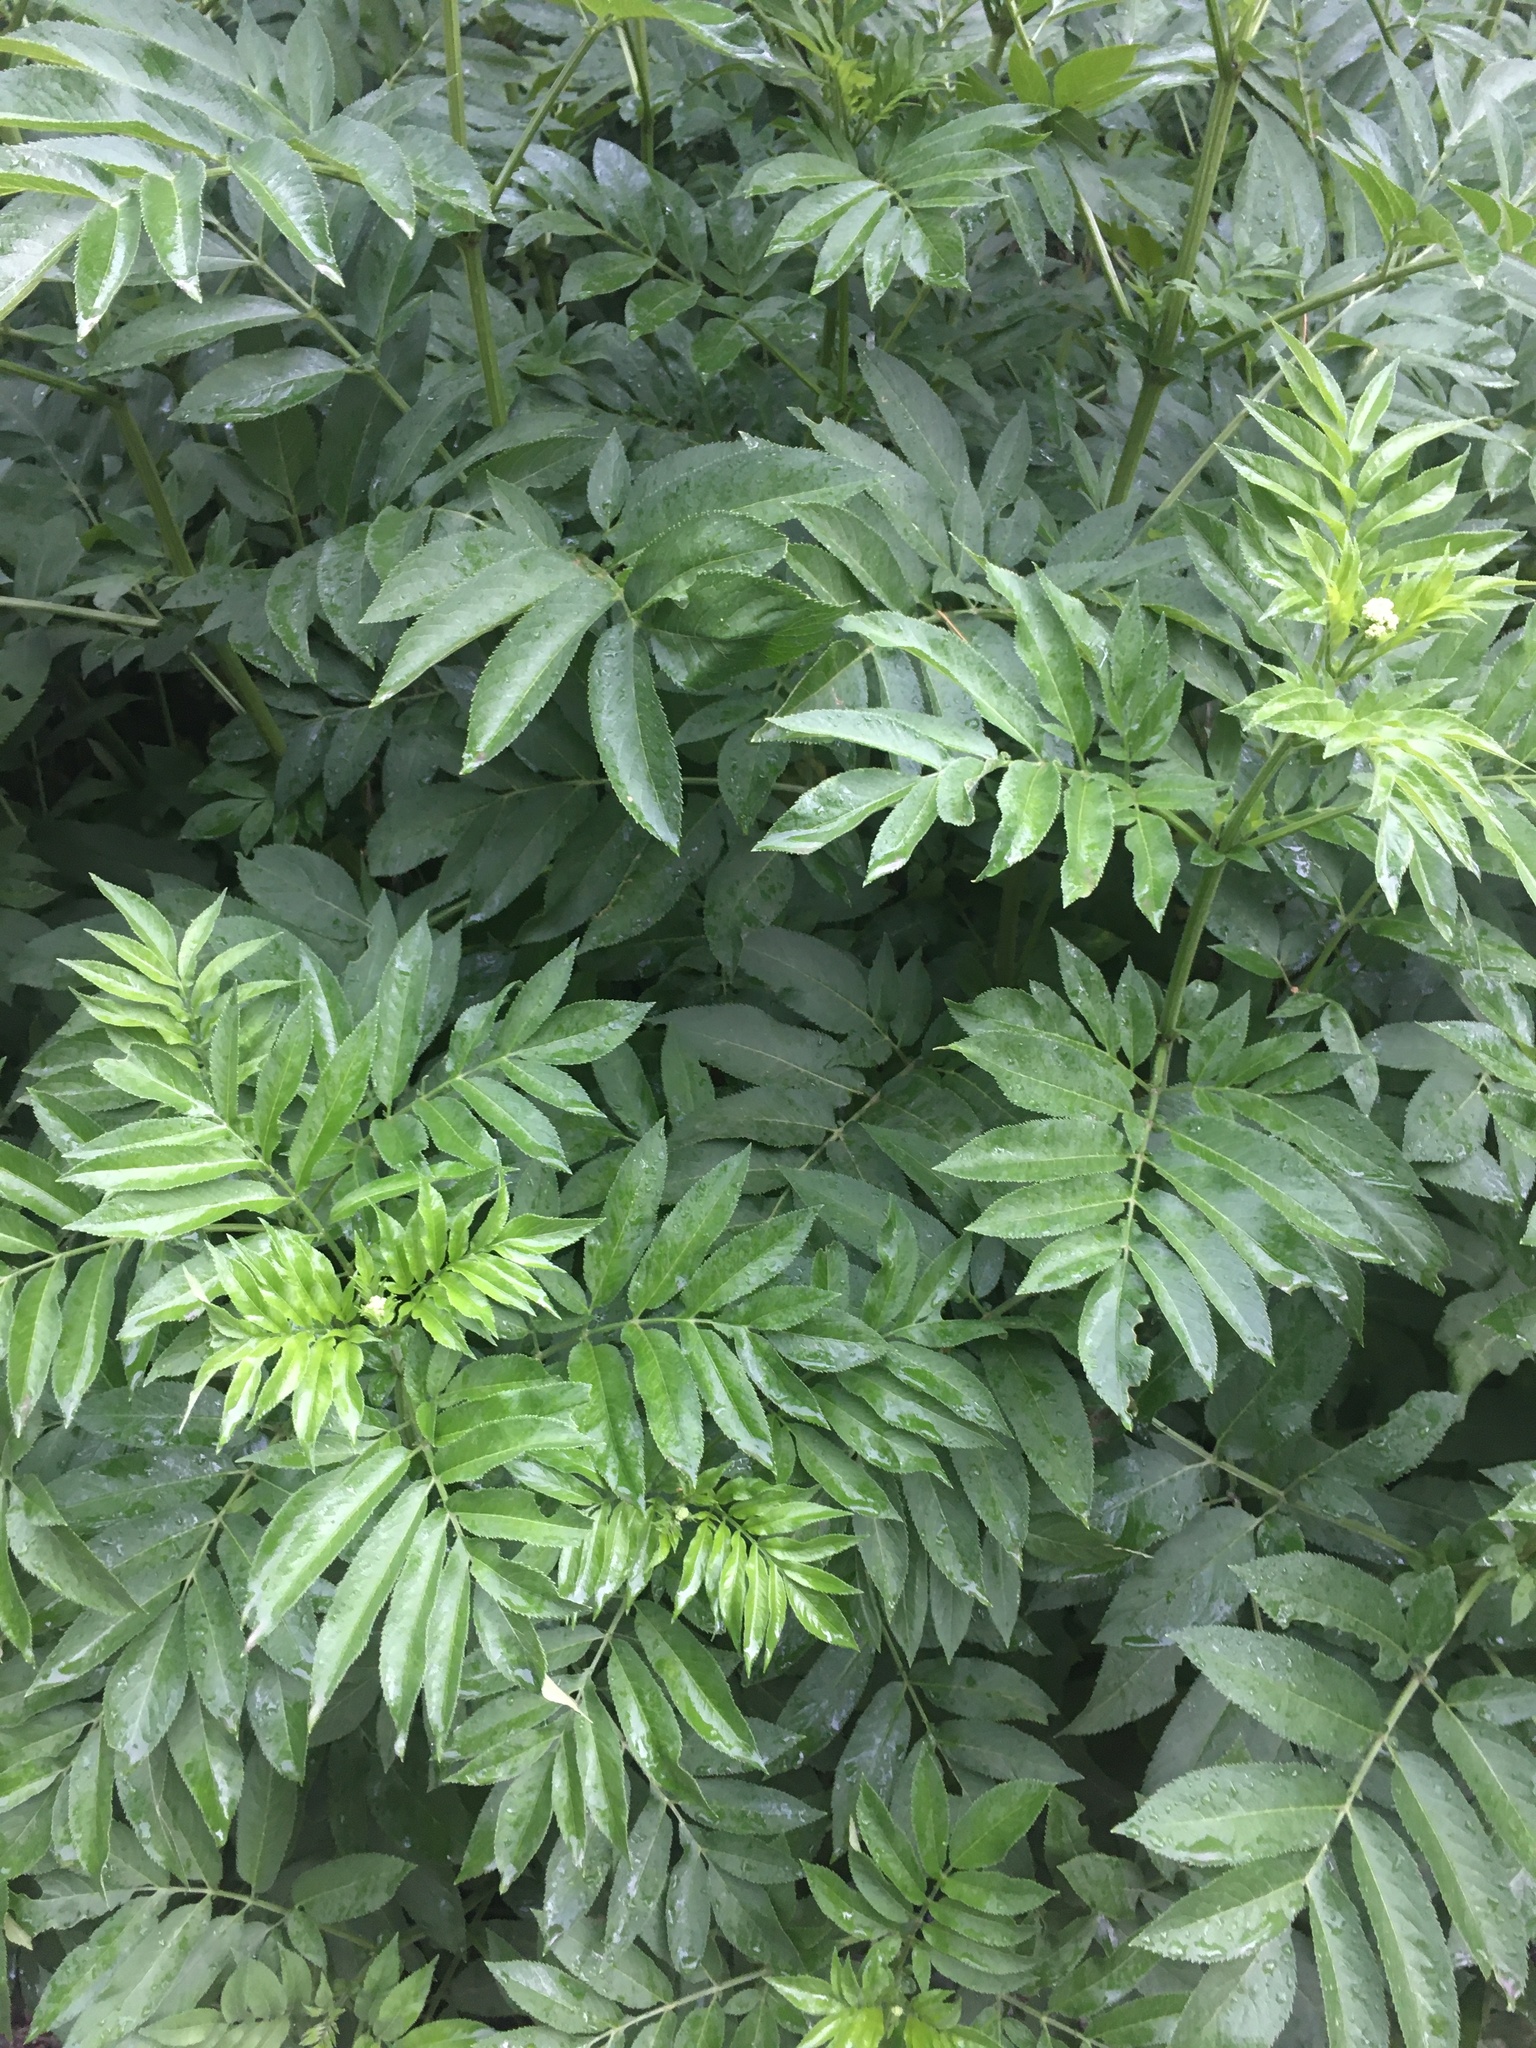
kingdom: Plantae
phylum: Tracheophyta
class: Magnoliopsida
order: Dipsacales
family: Viburnaceae
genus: Sambucus
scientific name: Sambucus ebulus
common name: Dwarf elder
